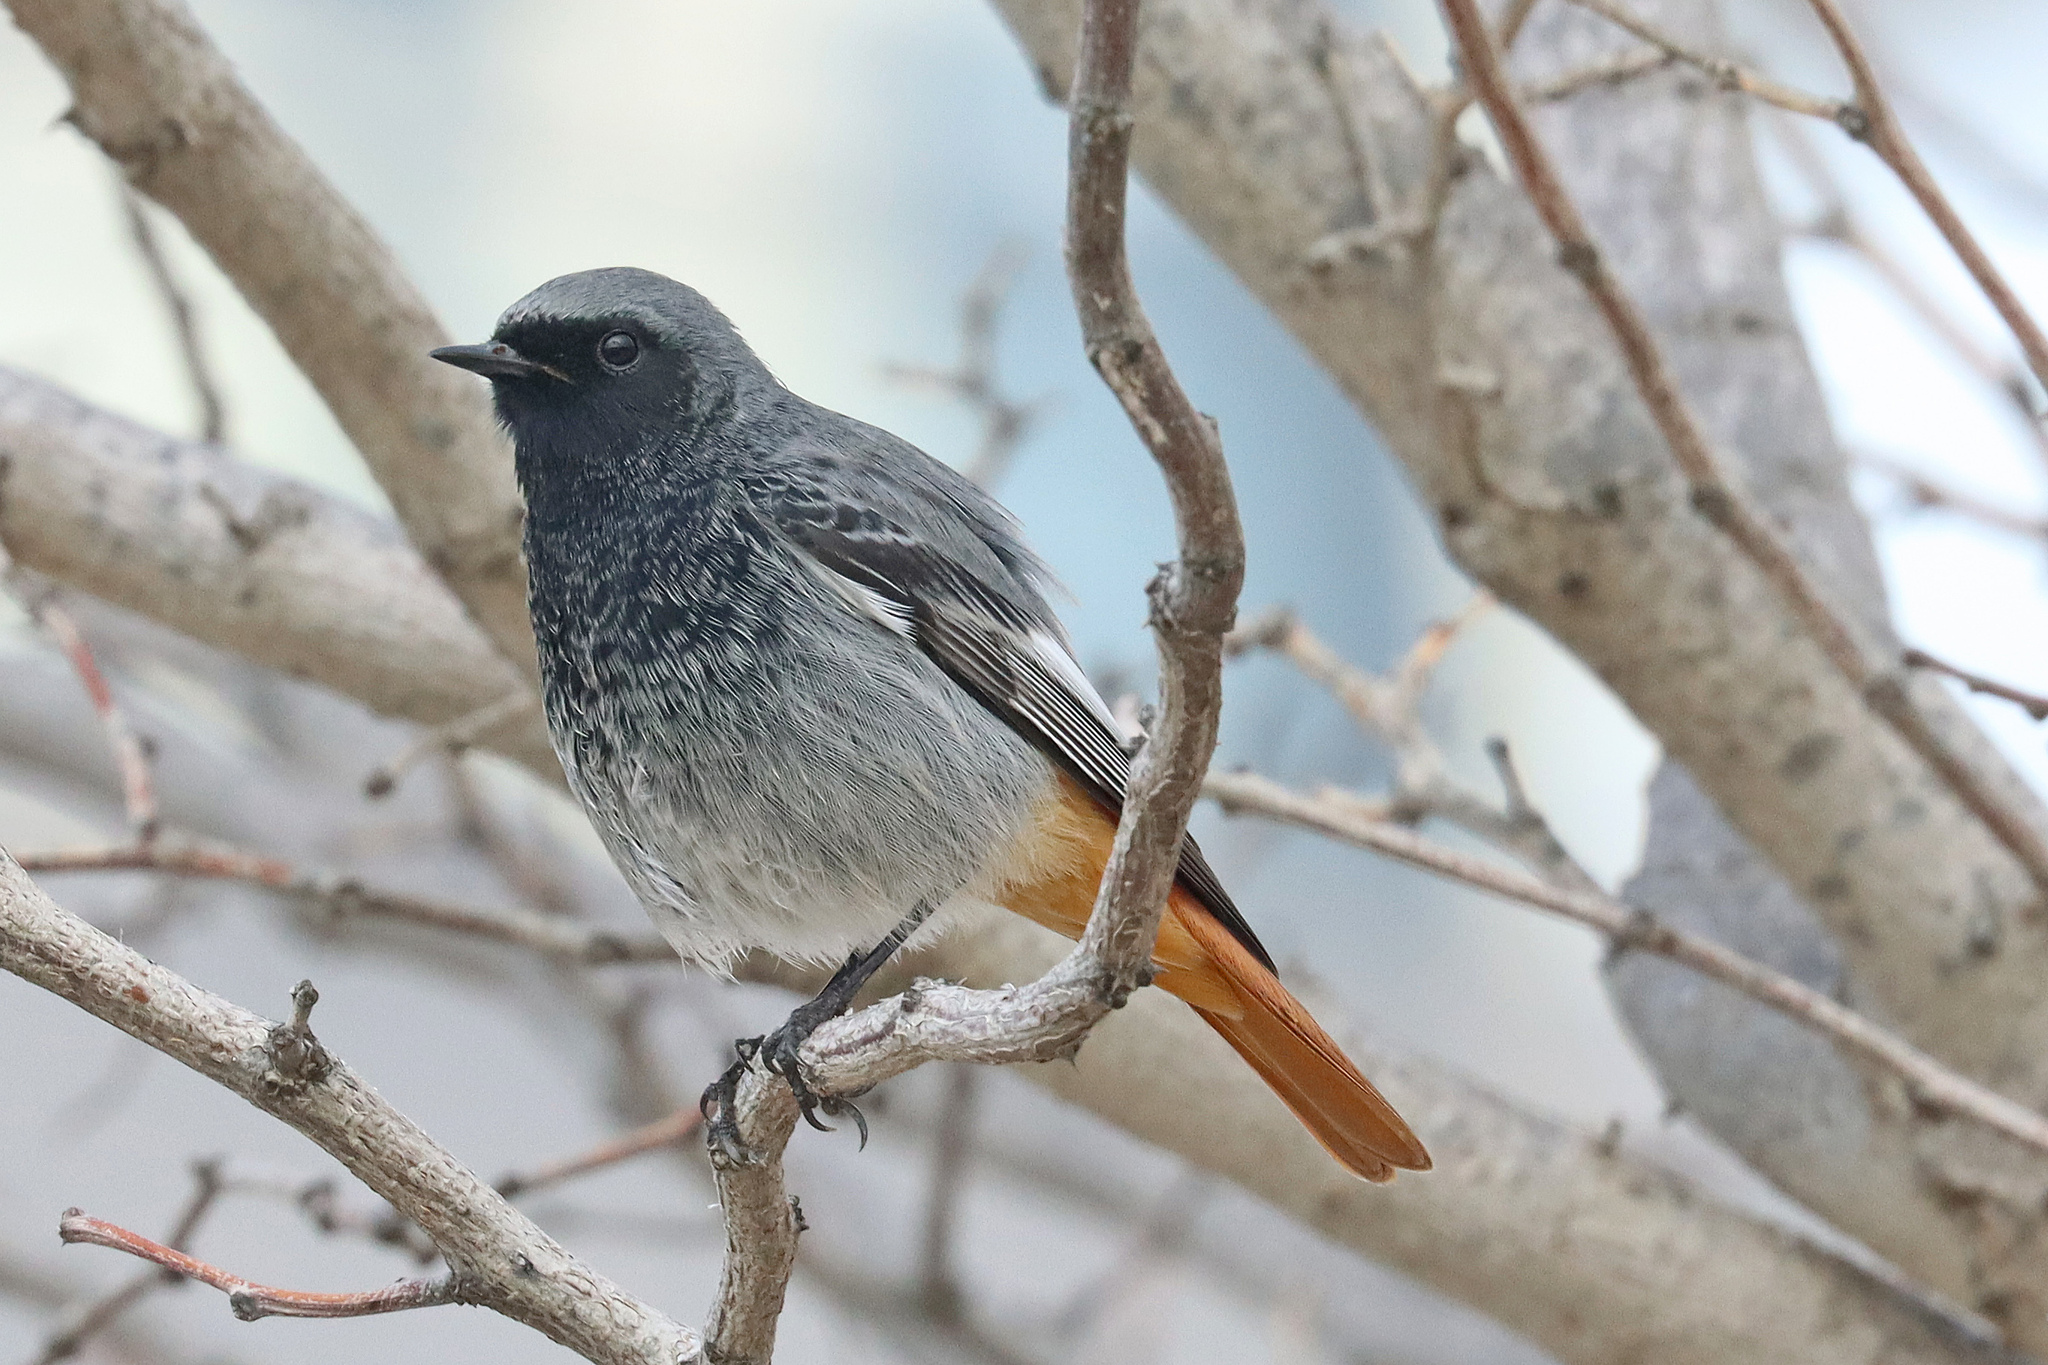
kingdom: Animalia
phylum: Chordata
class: Aves
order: Passeriformes
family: Muscicapidae
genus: Phoenicurus
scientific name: Phoenicurus ochruros
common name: Black redstart
